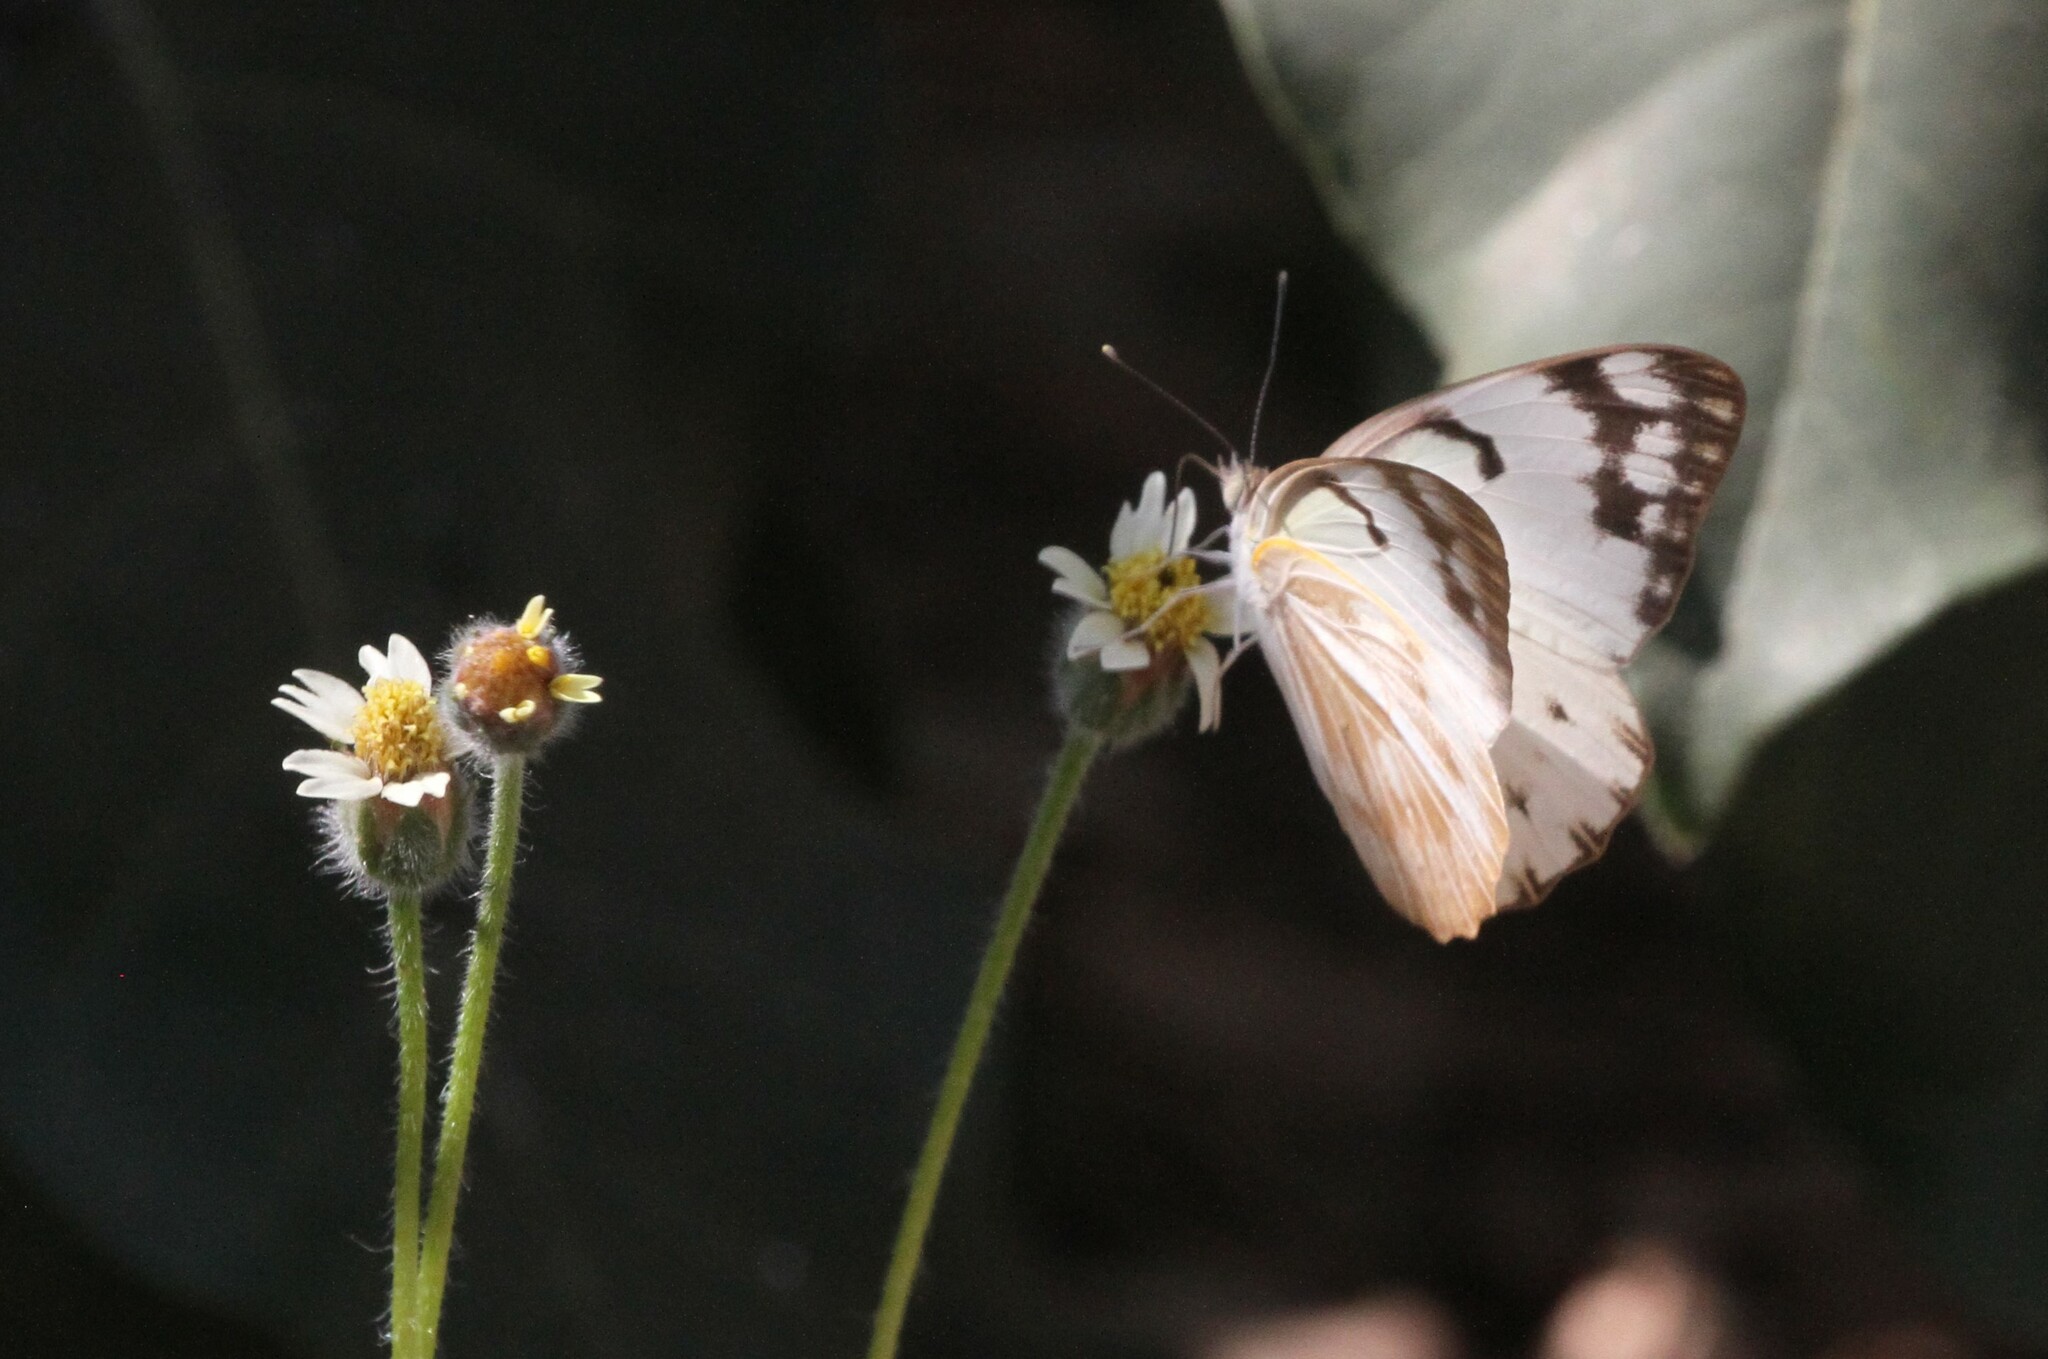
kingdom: Animalia
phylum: Arthropoda
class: Insecta
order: Lepidoptera
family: Pieridae
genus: Belenois
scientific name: Belenois gidica
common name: Pointed caper white
